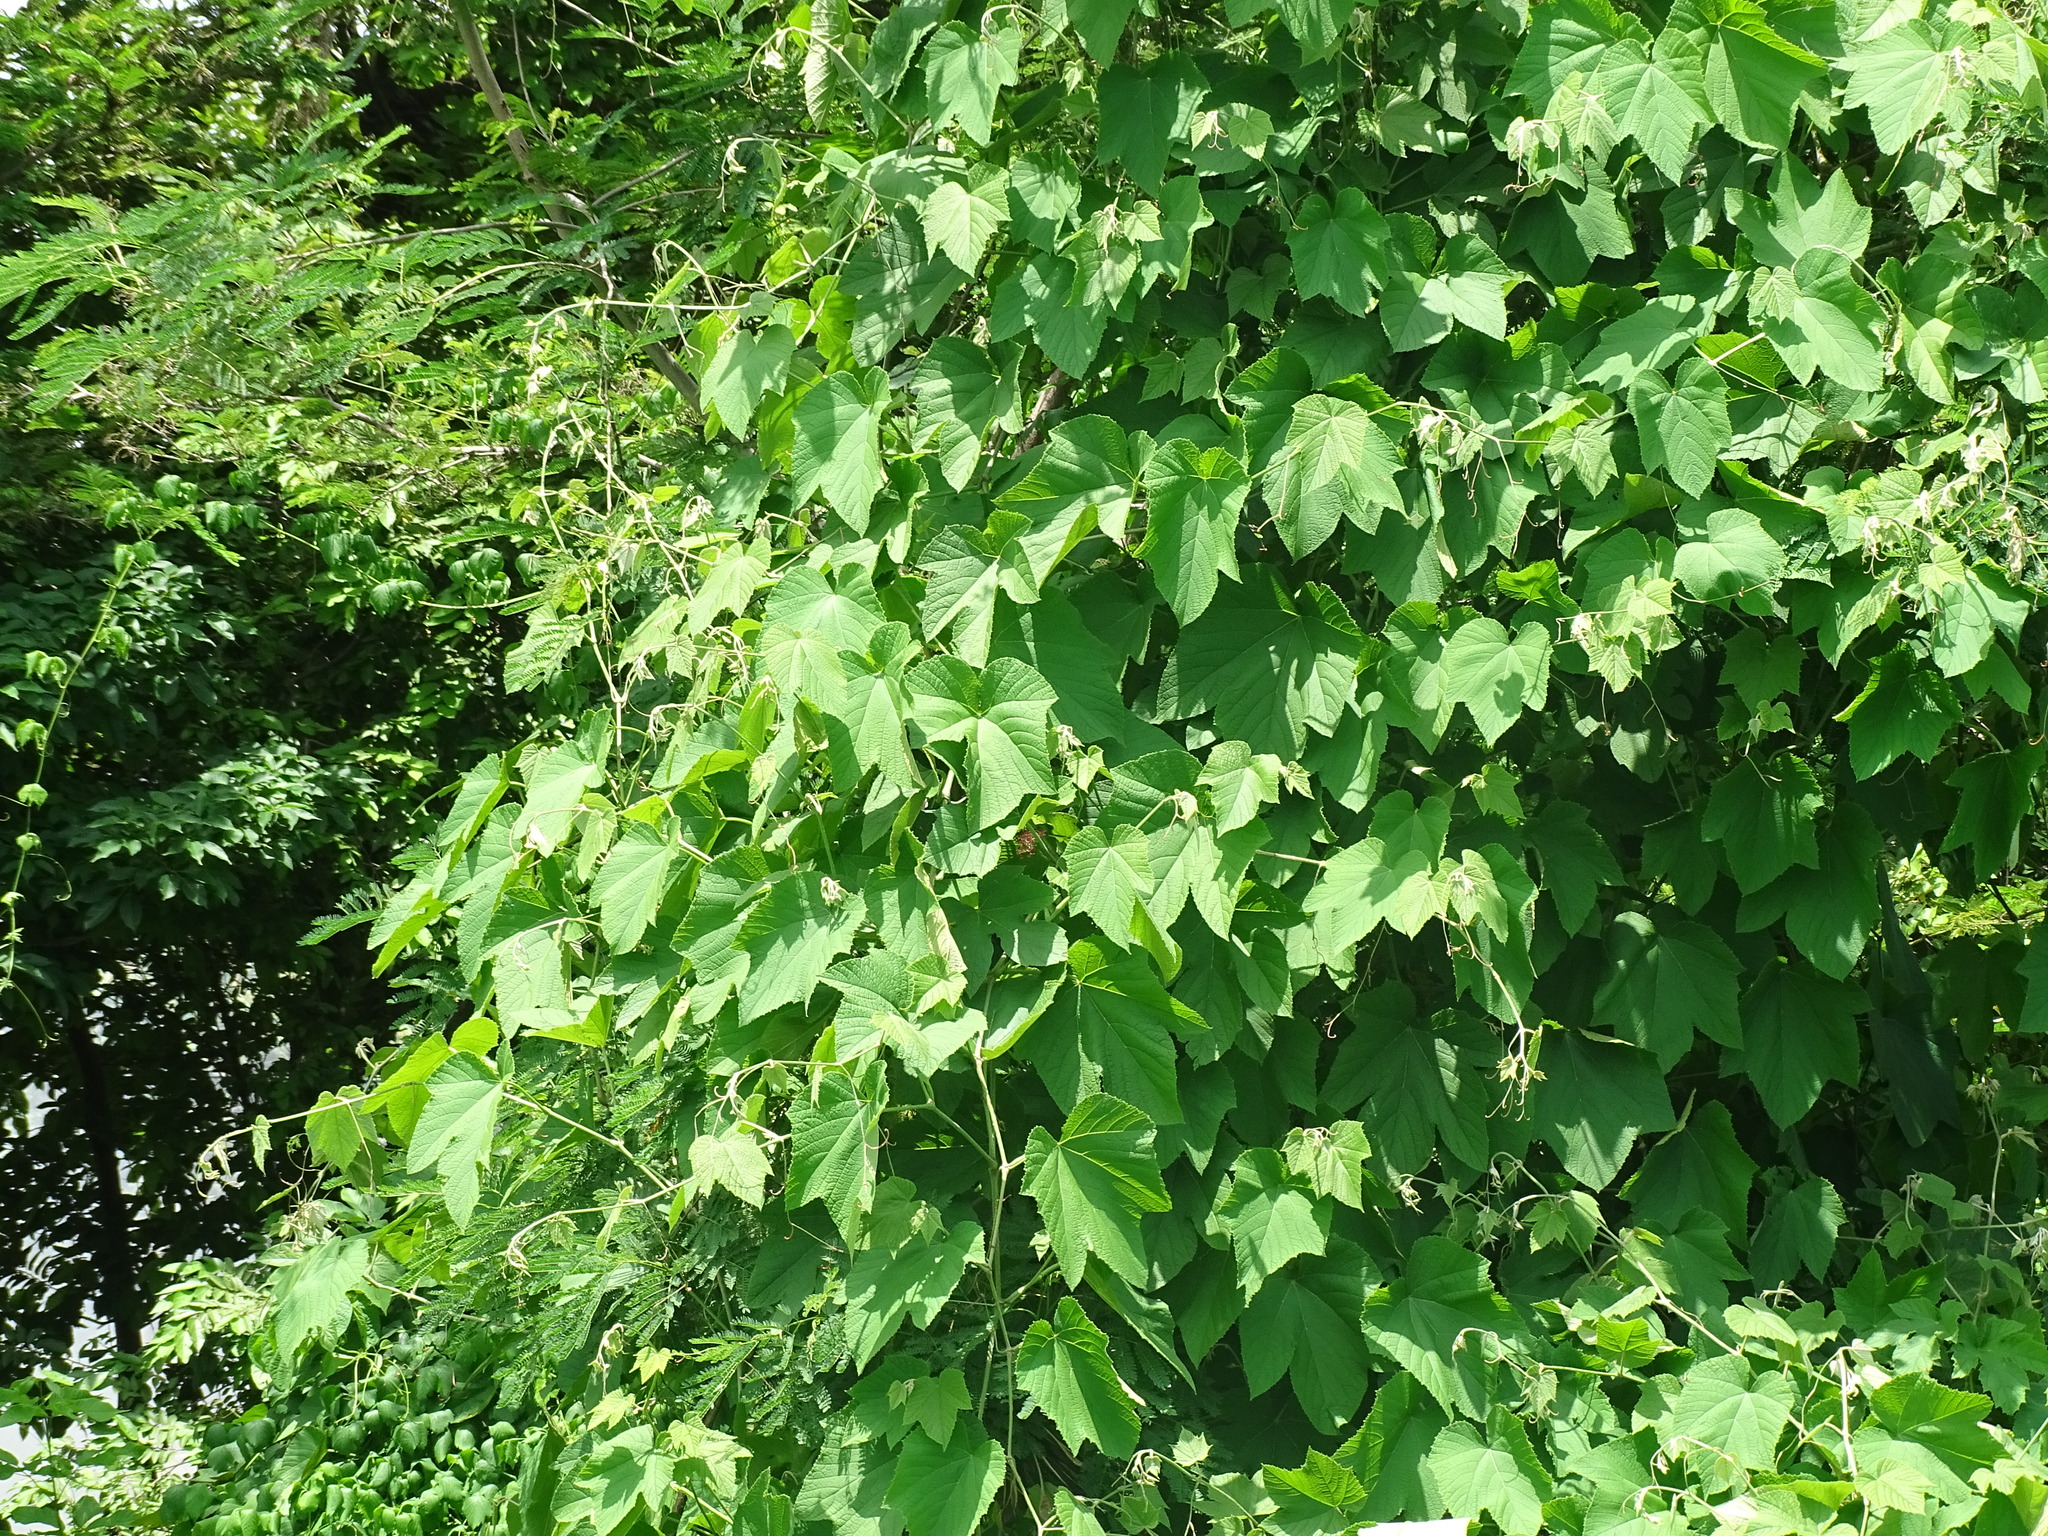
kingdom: Plantae
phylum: Tracheophyta
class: Magnoliopsida
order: Vitales
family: Vitaceae
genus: Ampelocissus
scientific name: Ampelocissus mesoamericana
